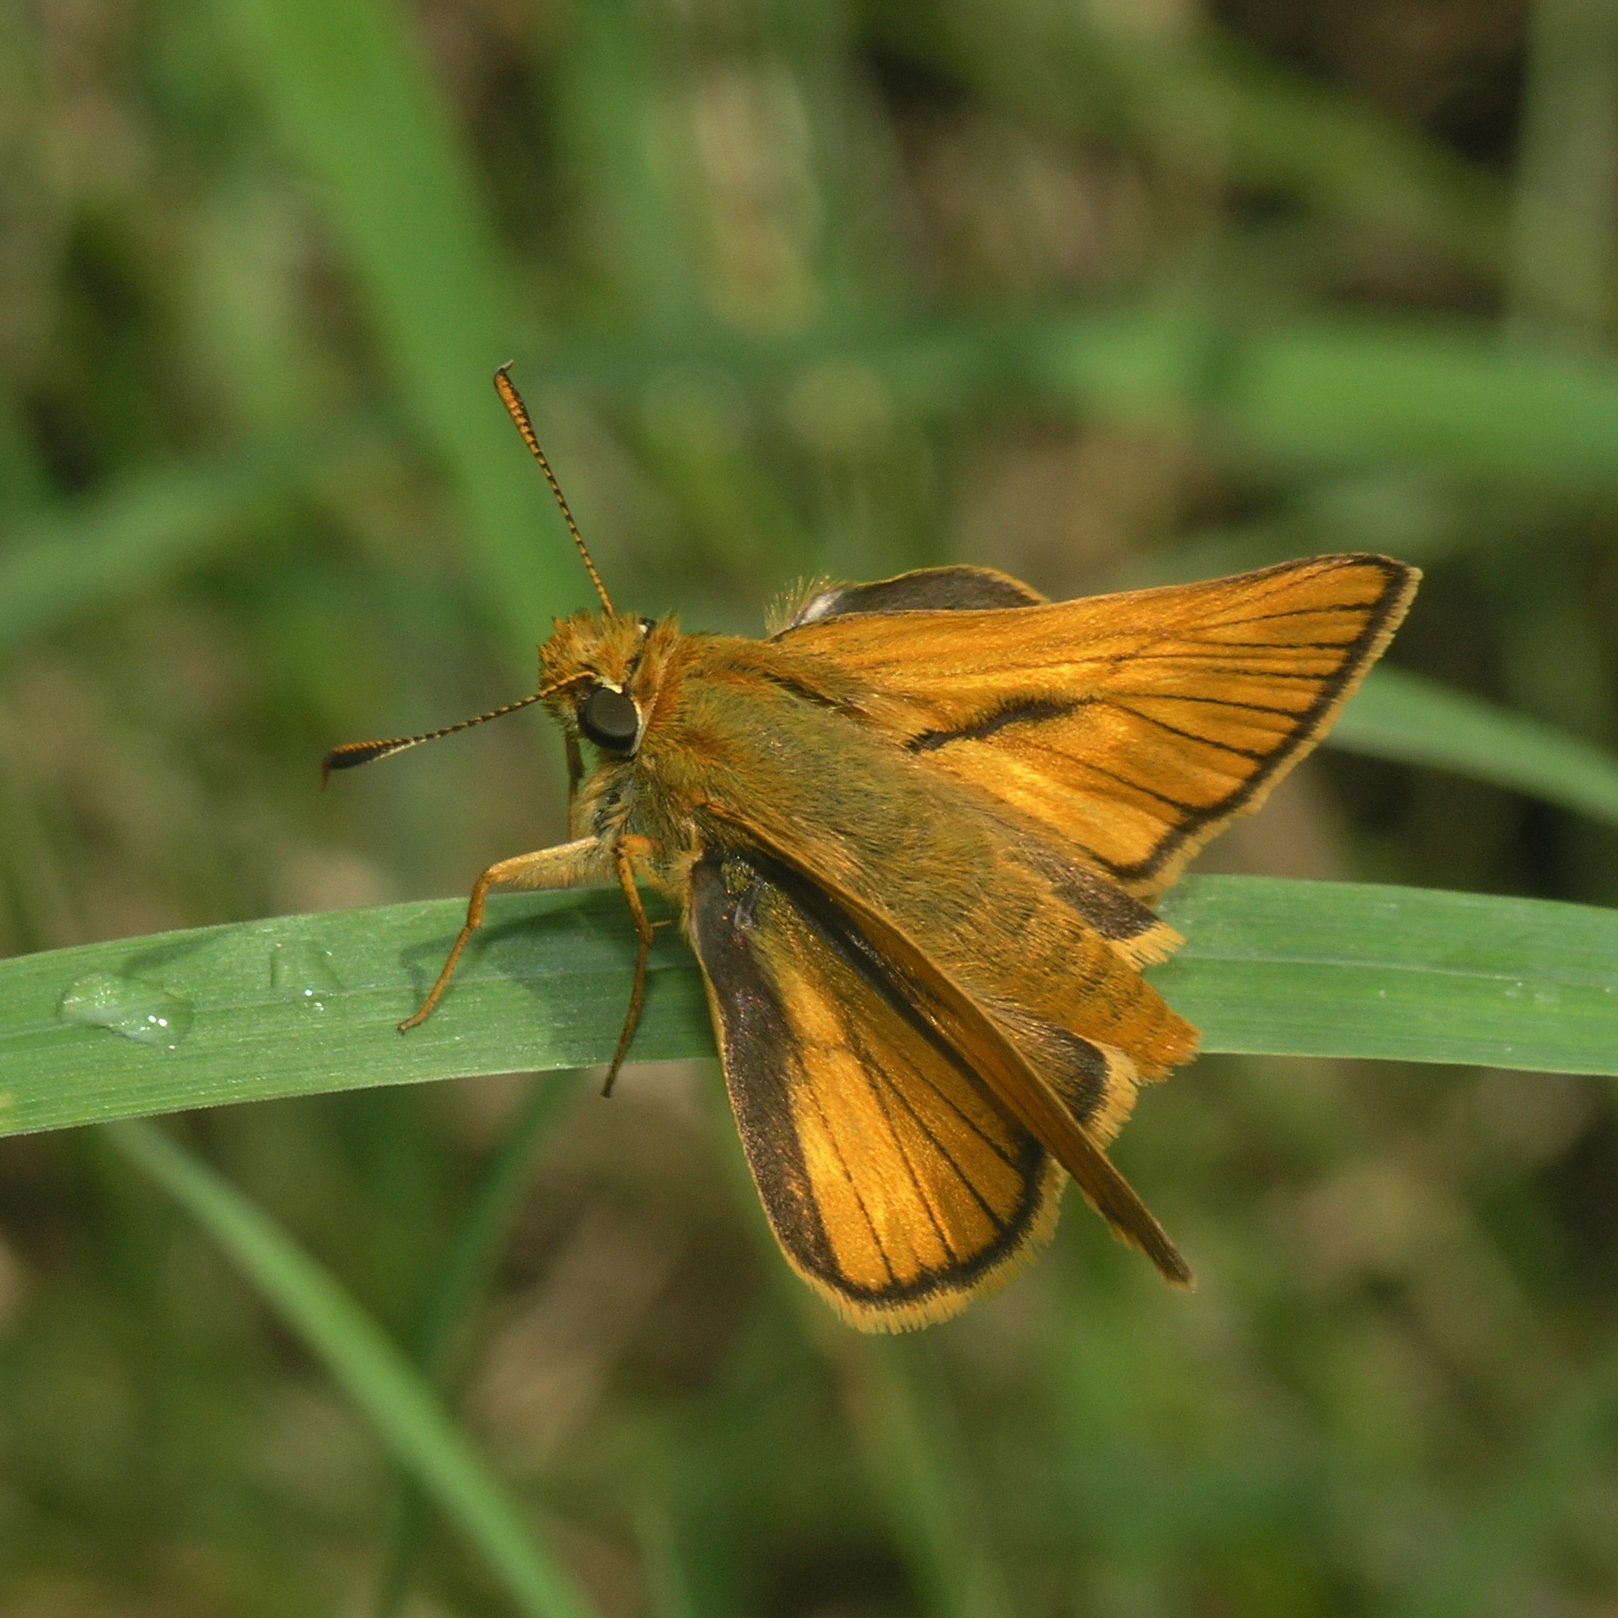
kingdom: Animalia
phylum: Arthropoda
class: Insecta
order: Lepidoptera
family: Hesperiidae
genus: Ochlodes
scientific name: Ochlodes venata
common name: Large skipper
